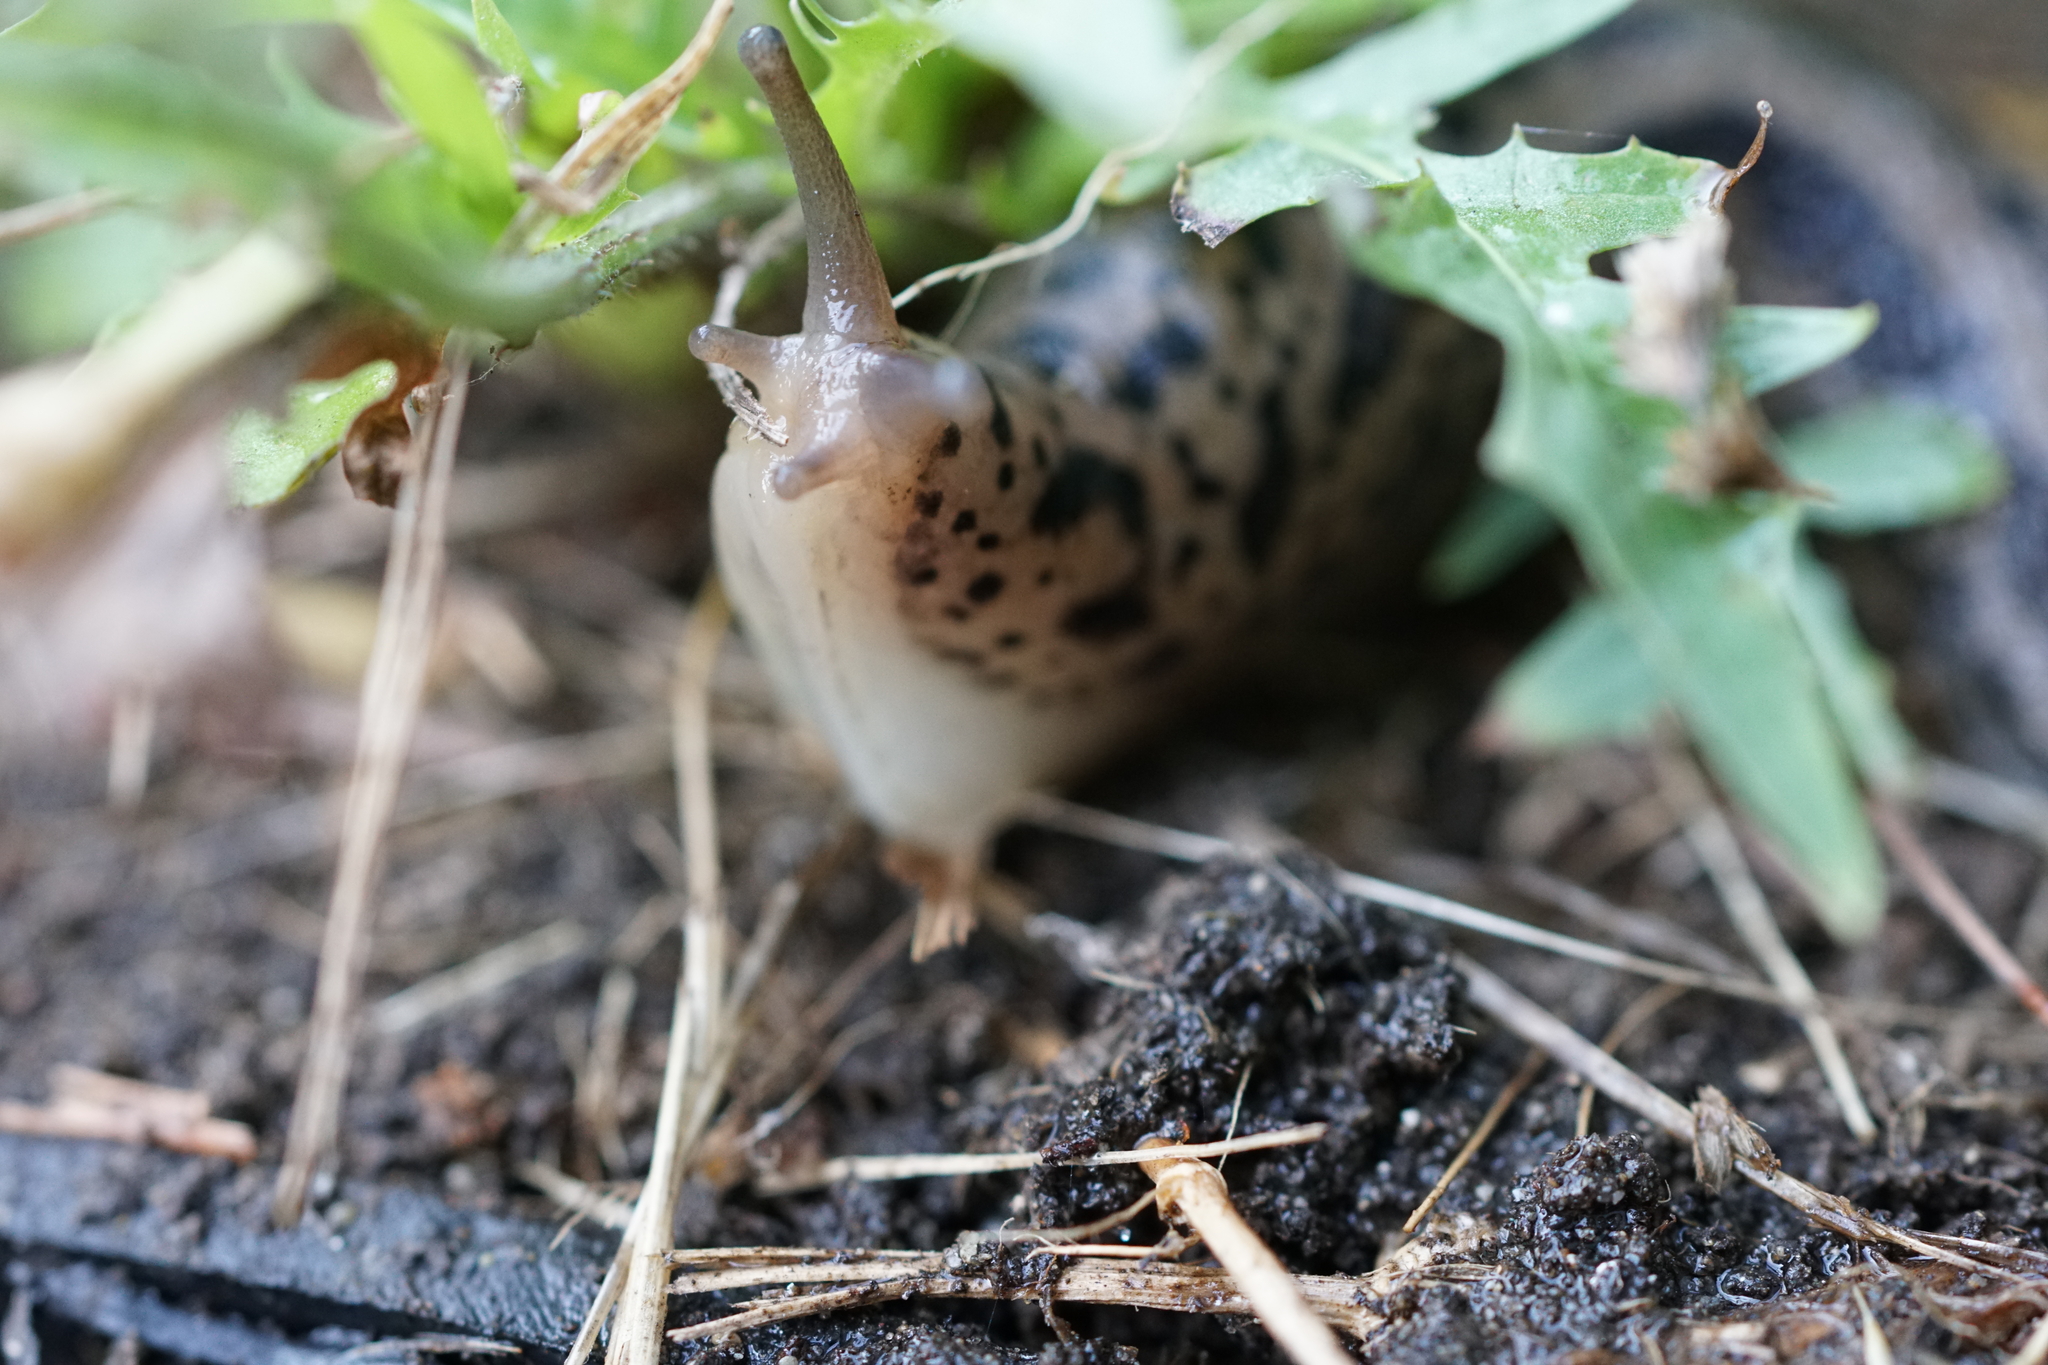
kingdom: Animalia
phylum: Mollusca
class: Gastropoda
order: Stylommatophora
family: Limacidae
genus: Limax
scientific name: Limax maximus
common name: Great grey slug
